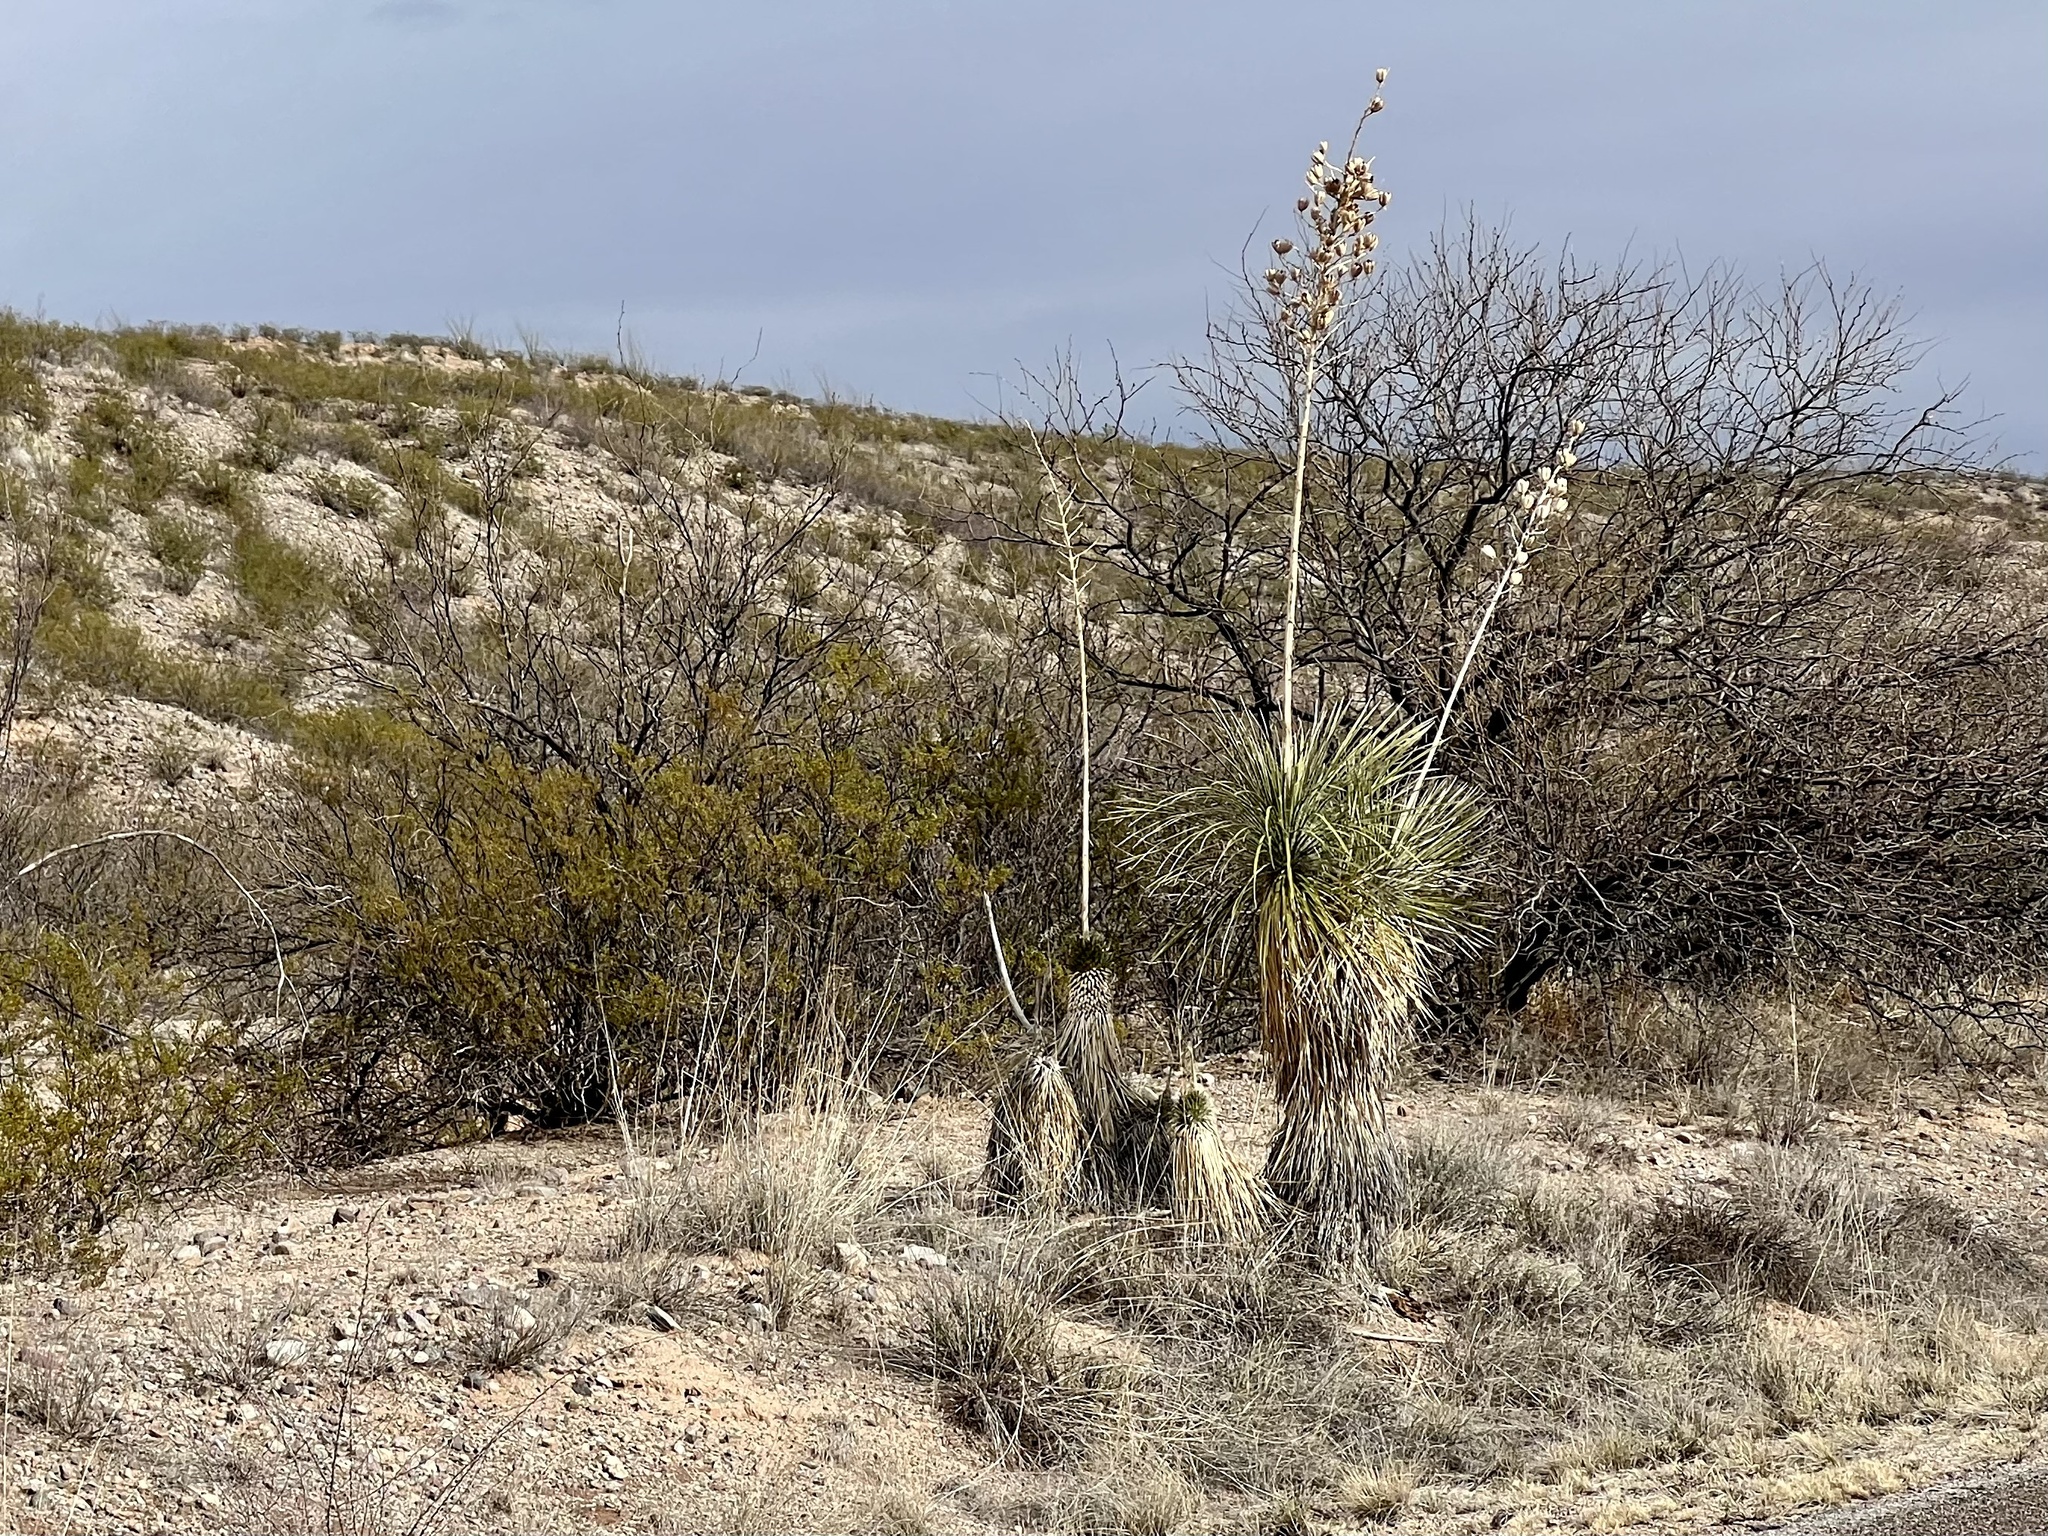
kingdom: Plantae
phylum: Tracheophyta
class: Liliopsida
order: Asparagales
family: Asparagaceae
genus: Yucca
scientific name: Yucca elata
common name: Palmella
